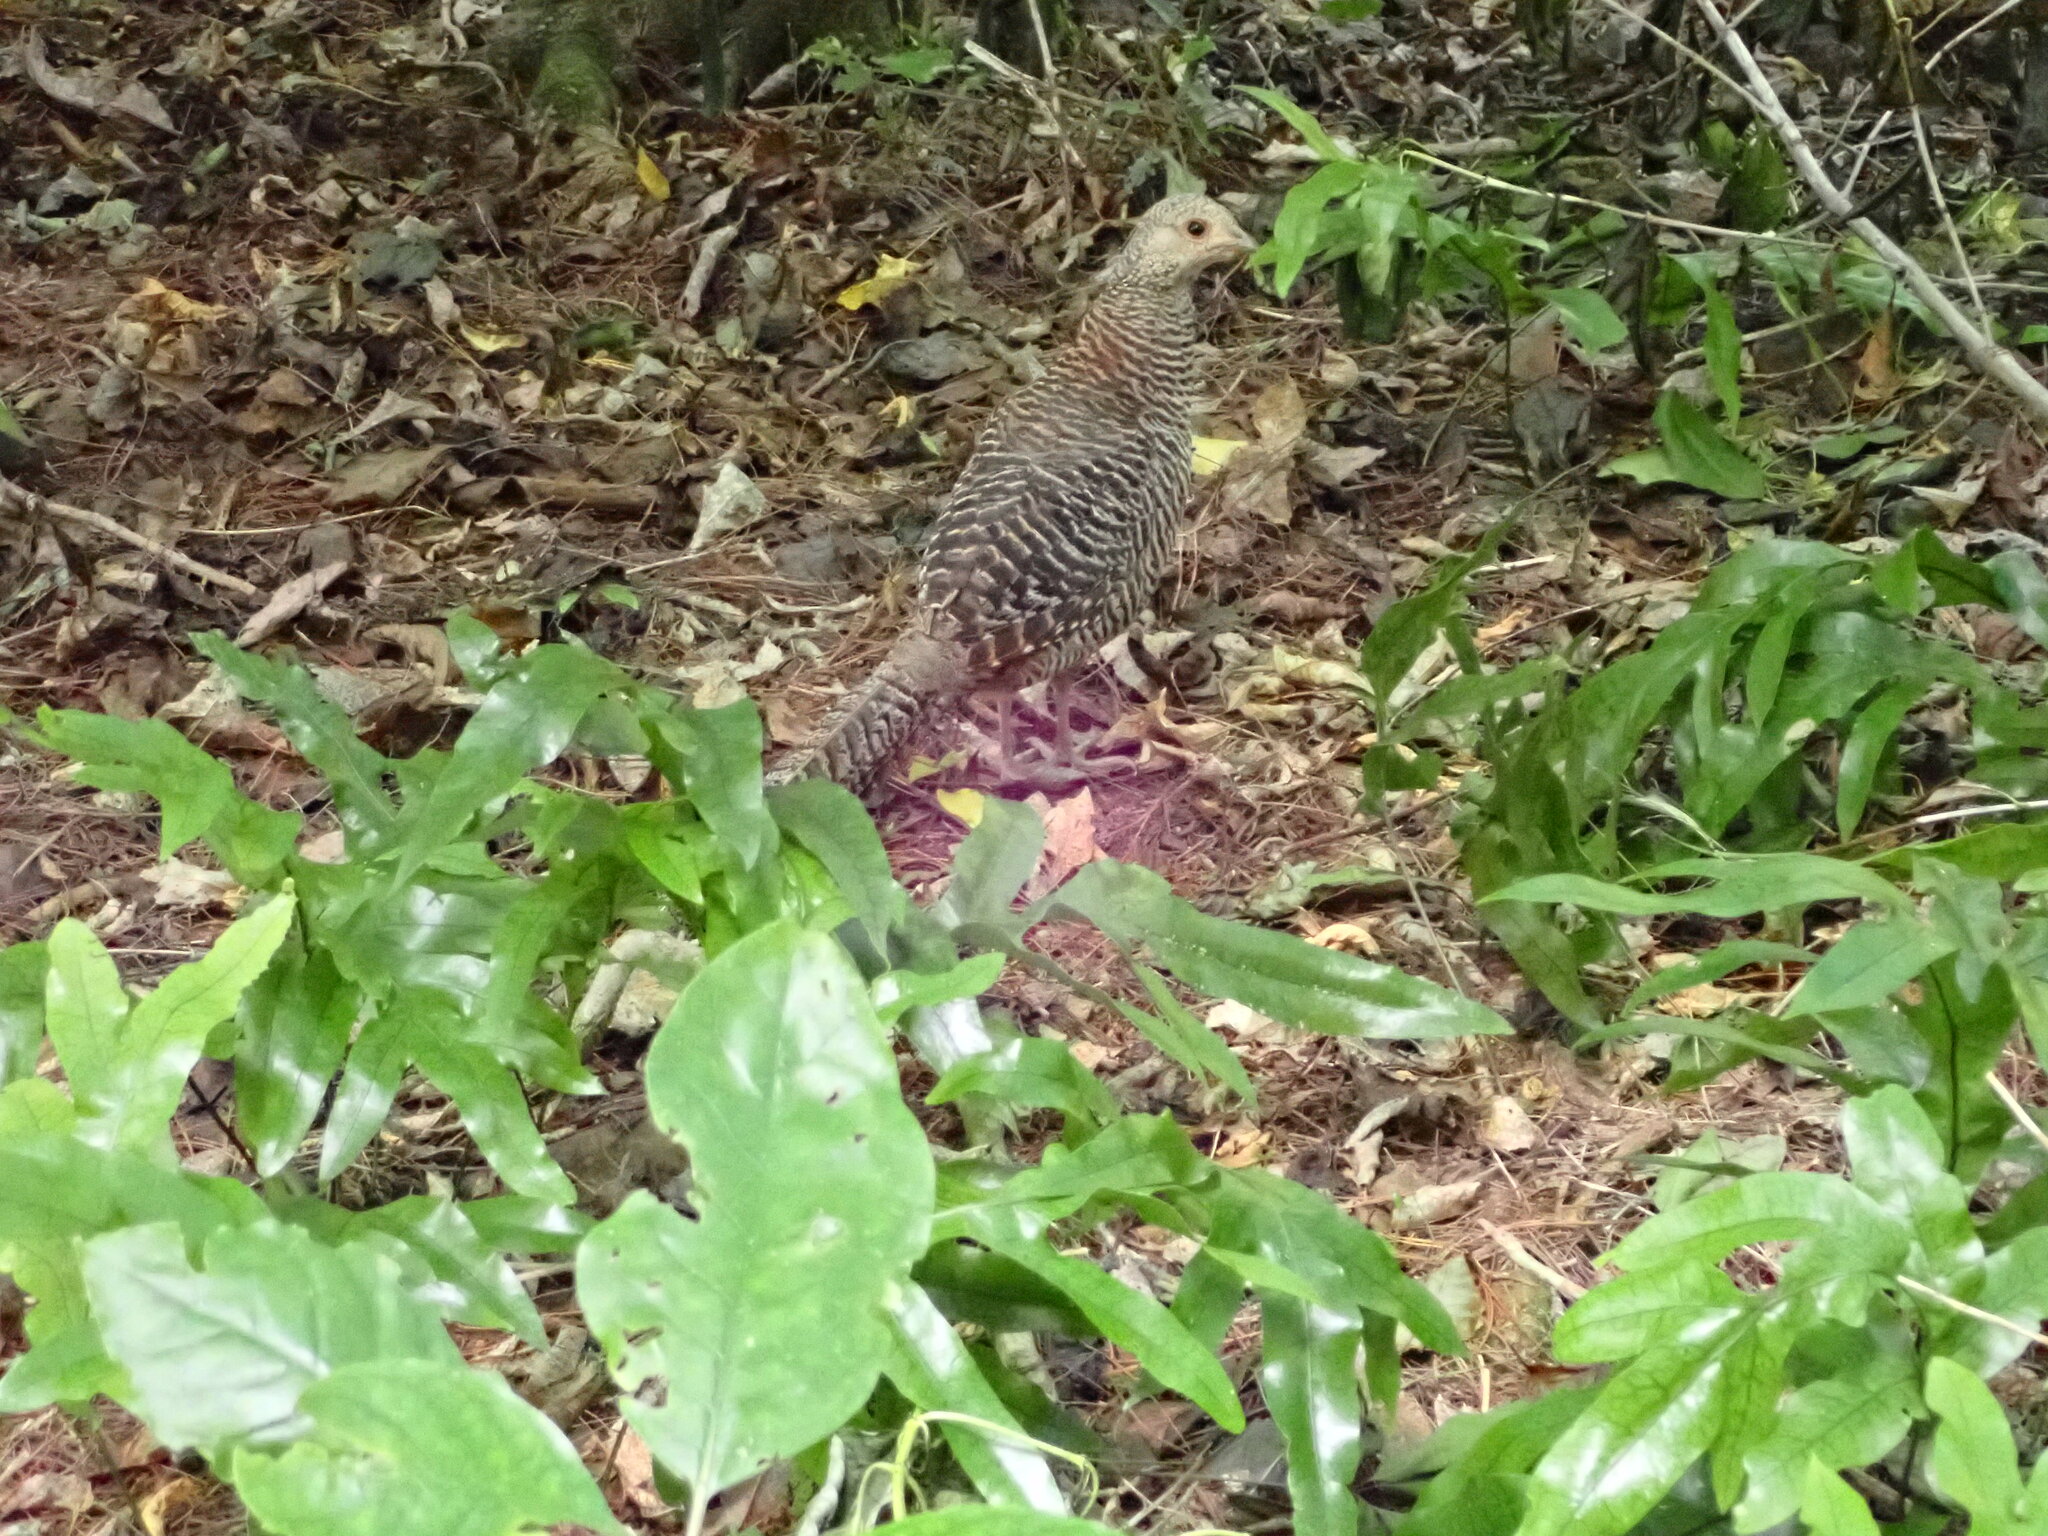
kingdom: Animalia
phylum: Chordata
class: Aves
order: Galliformes
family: Phasianidae
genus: Phasianus
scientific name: Phasianus colchicus
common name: Common pheasant
